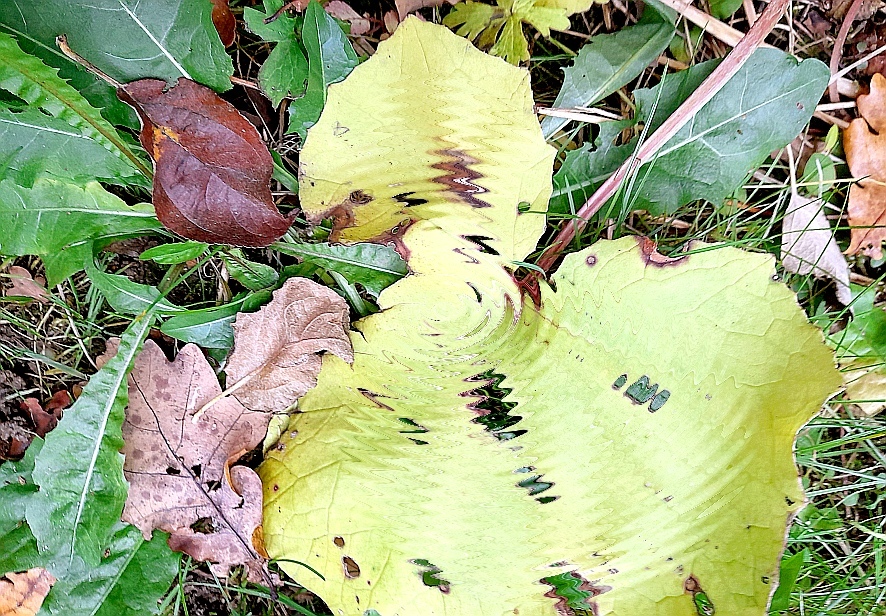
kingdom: Plantae
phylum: Tracheophyta
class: Magnoliopsida
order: Asterales
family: Asteraceae
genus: Taraxacum
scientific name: Taraxacum officinale
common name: Common dandelion
